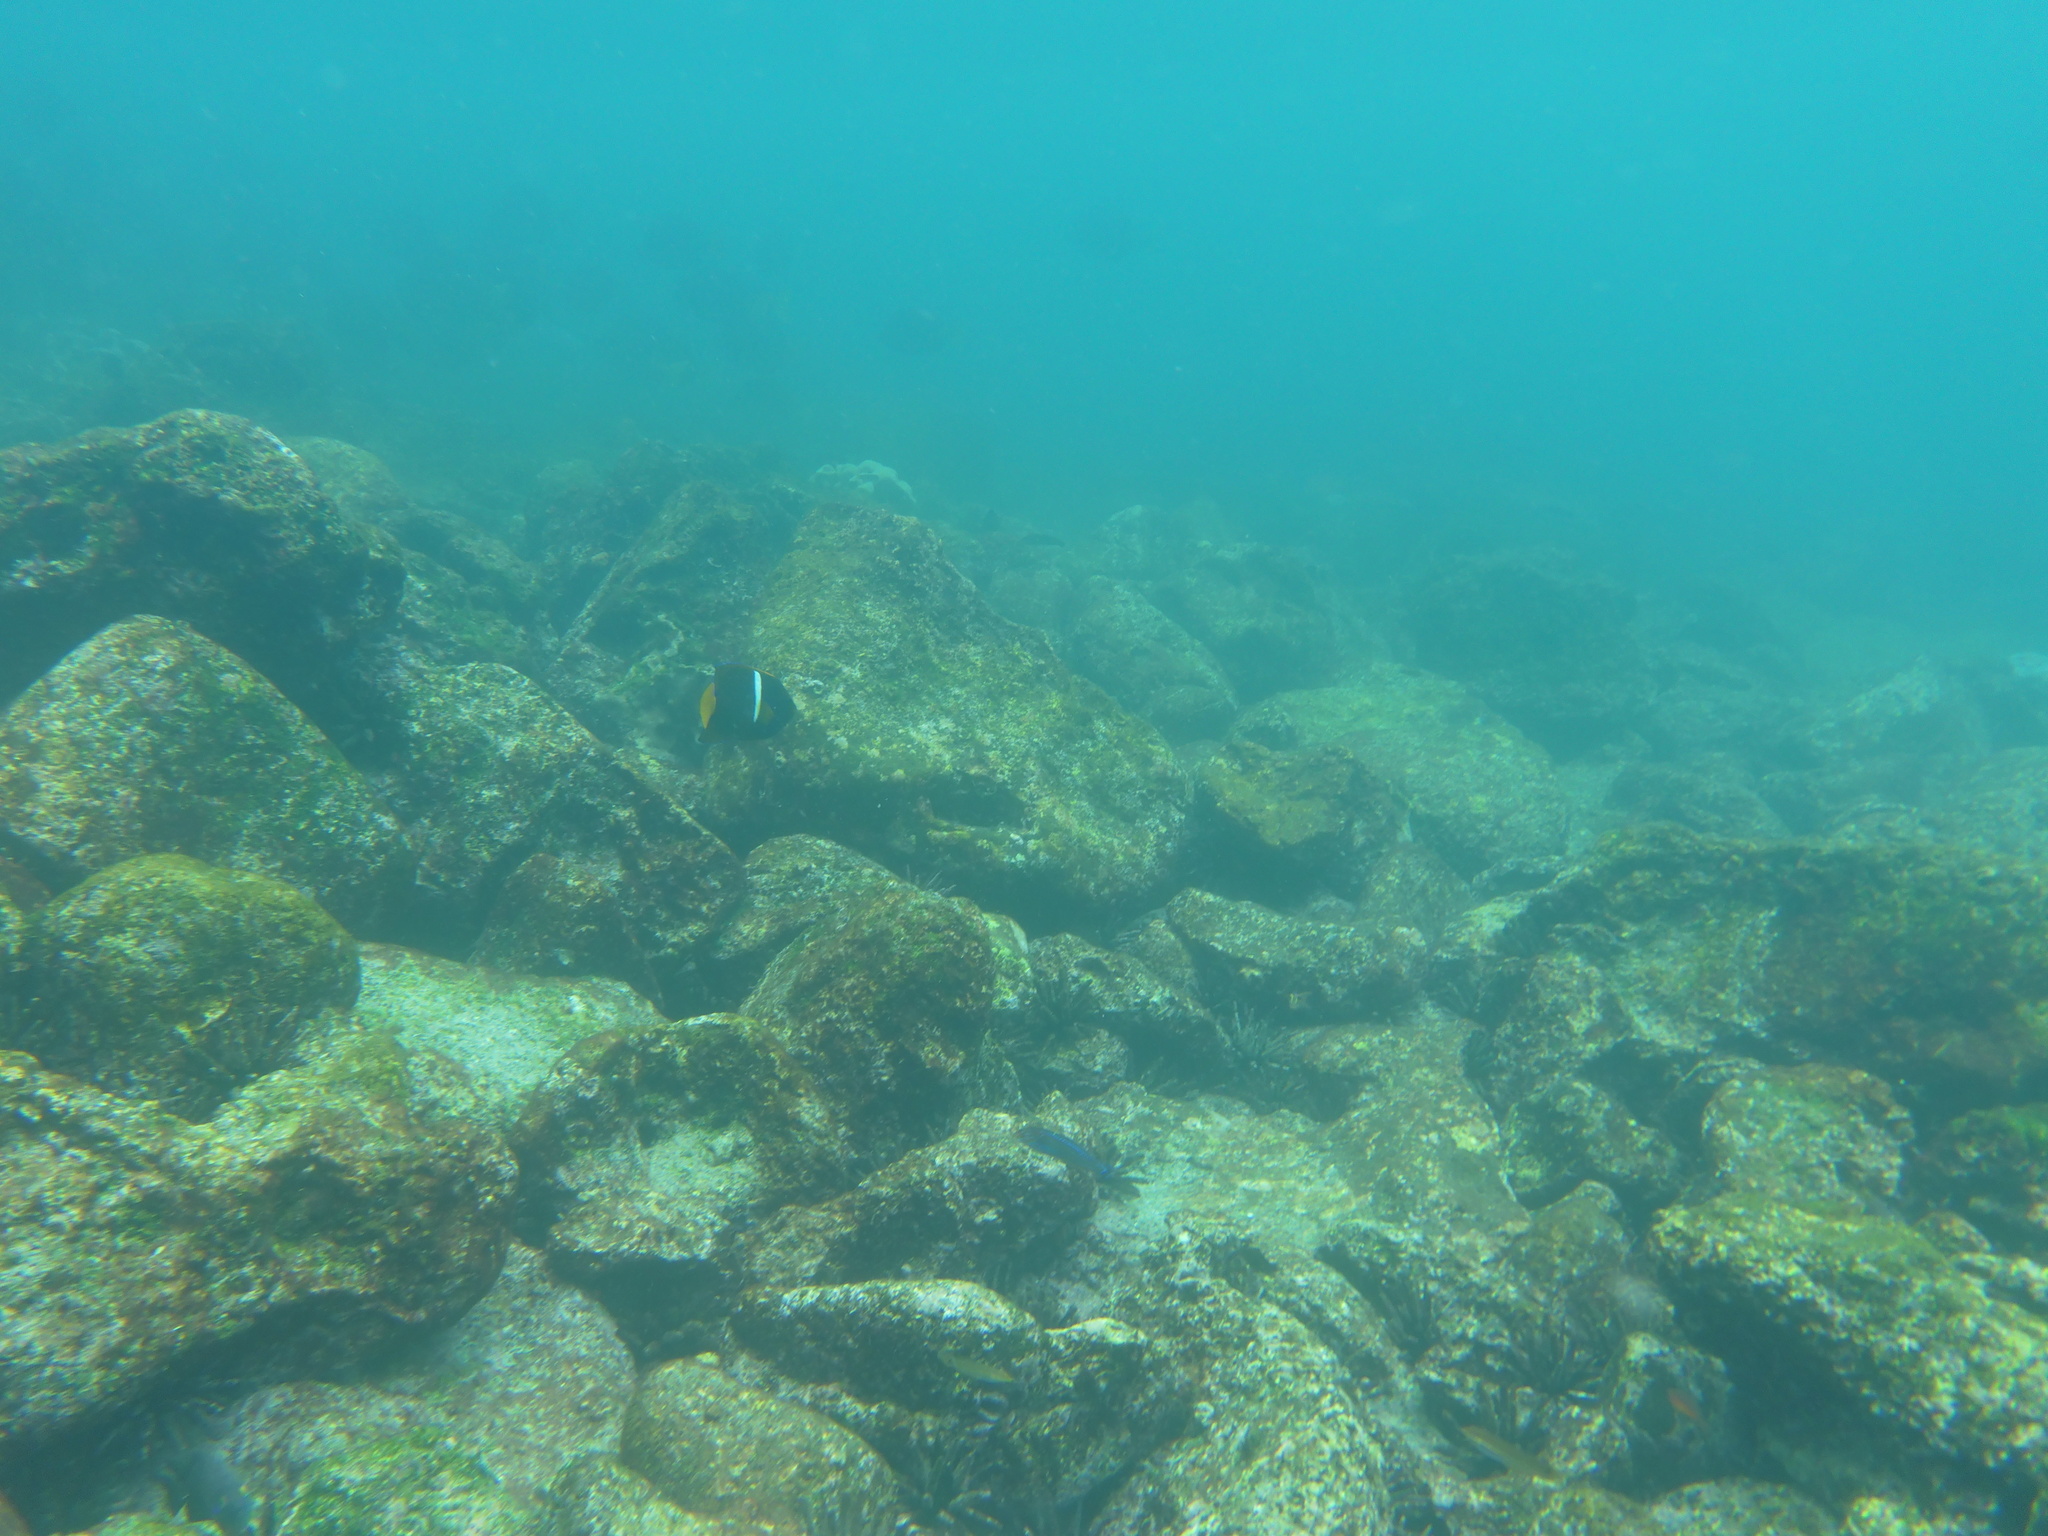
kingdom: Animalia
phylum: Chordata
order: Perciformes
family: Pomacanthidae
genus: Holacanthus
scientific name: Holacanthus passer
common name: King angelfish
